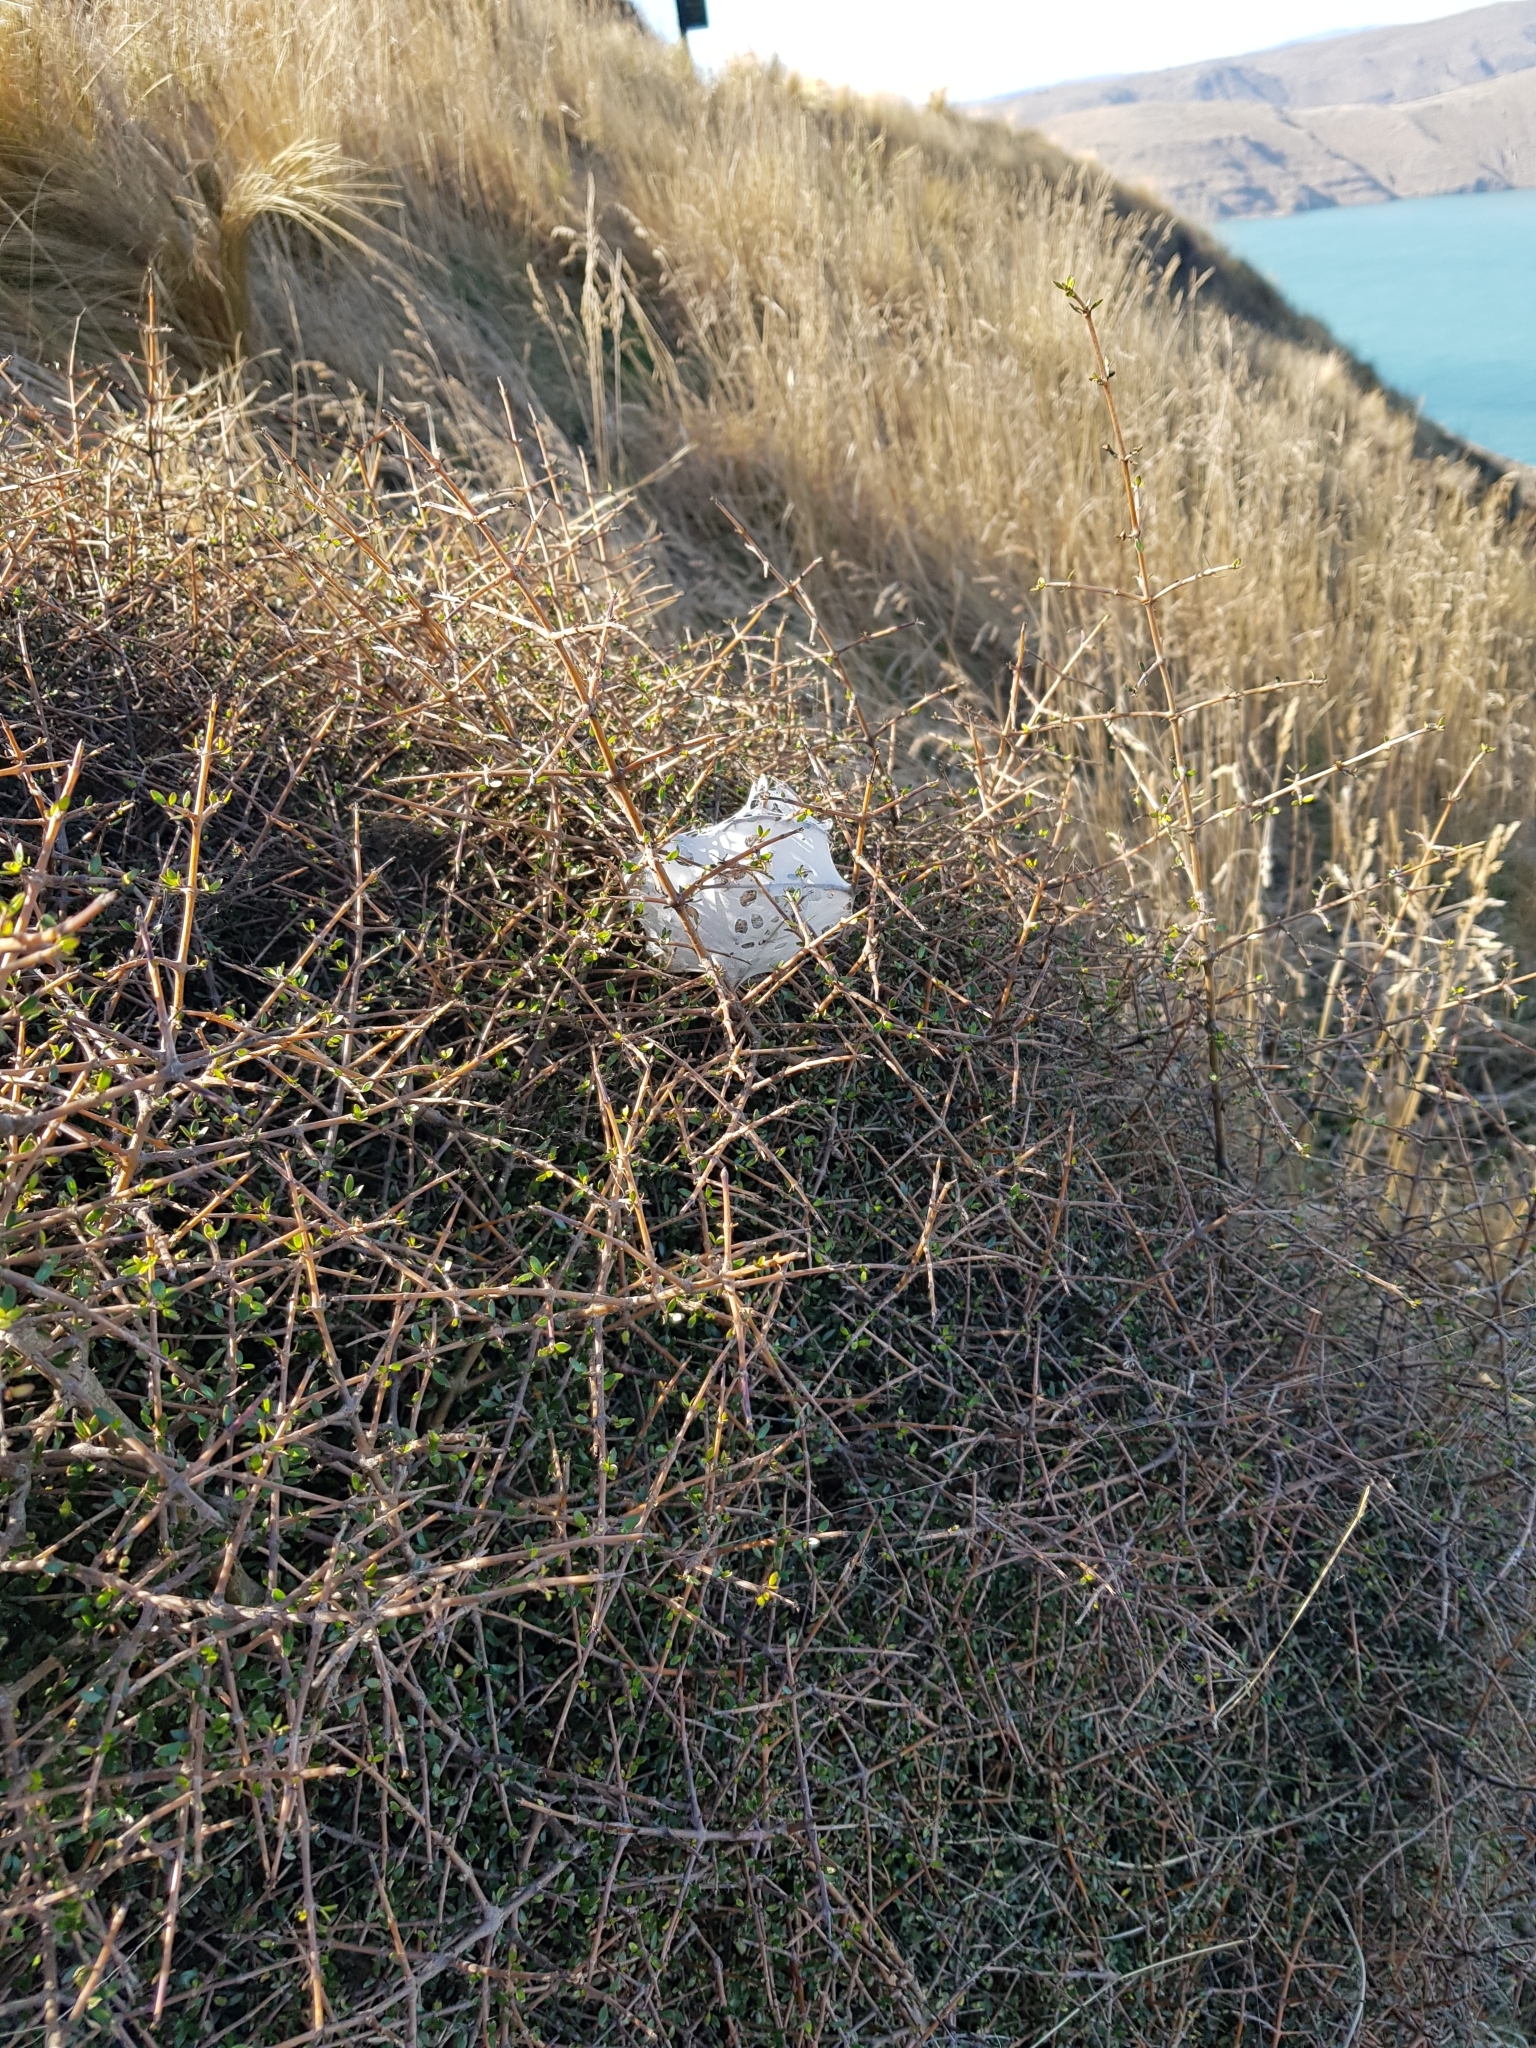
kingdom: Animalia
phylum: Arthropoda
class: Arachnida
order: Araneae
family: Pisauridae
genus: Dolomedes
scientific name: Dolomedes minor
